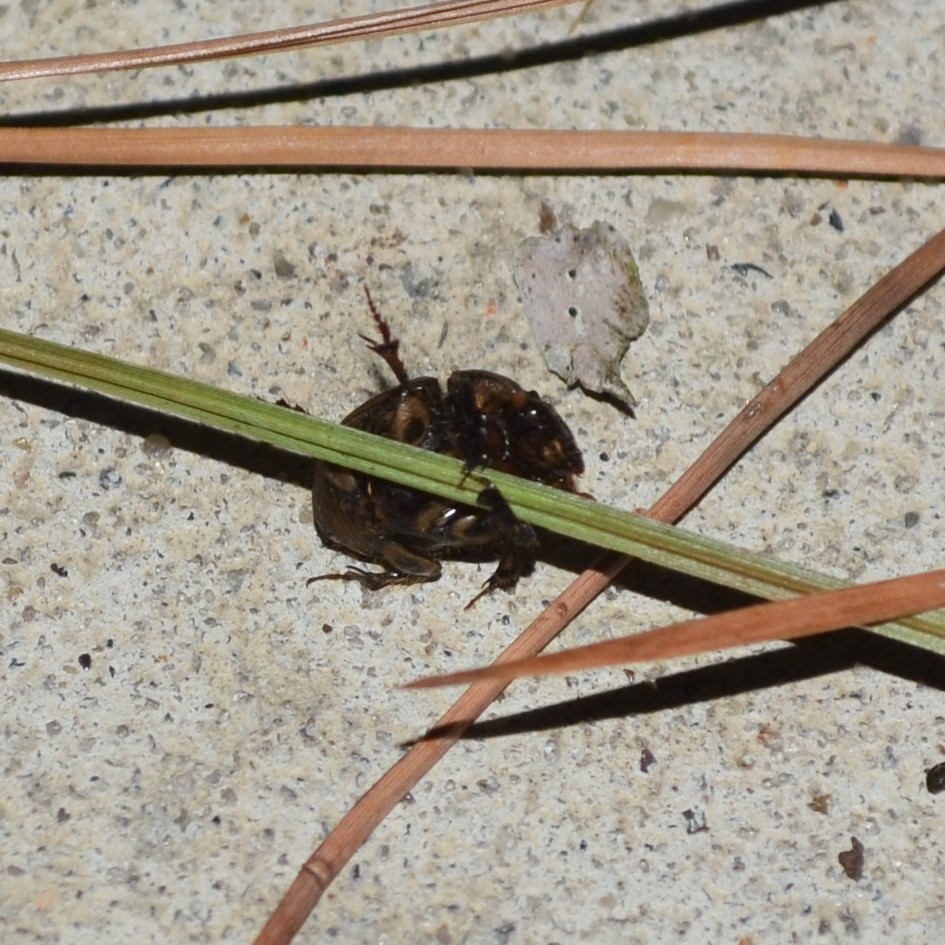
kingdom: Animalia
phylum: Arthropoda
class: Insecta
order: Coleoptera
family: Scarabaeidae
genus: Digitonthophagus
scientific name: Digitonthophagus gazella
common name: Brown dung beetle
